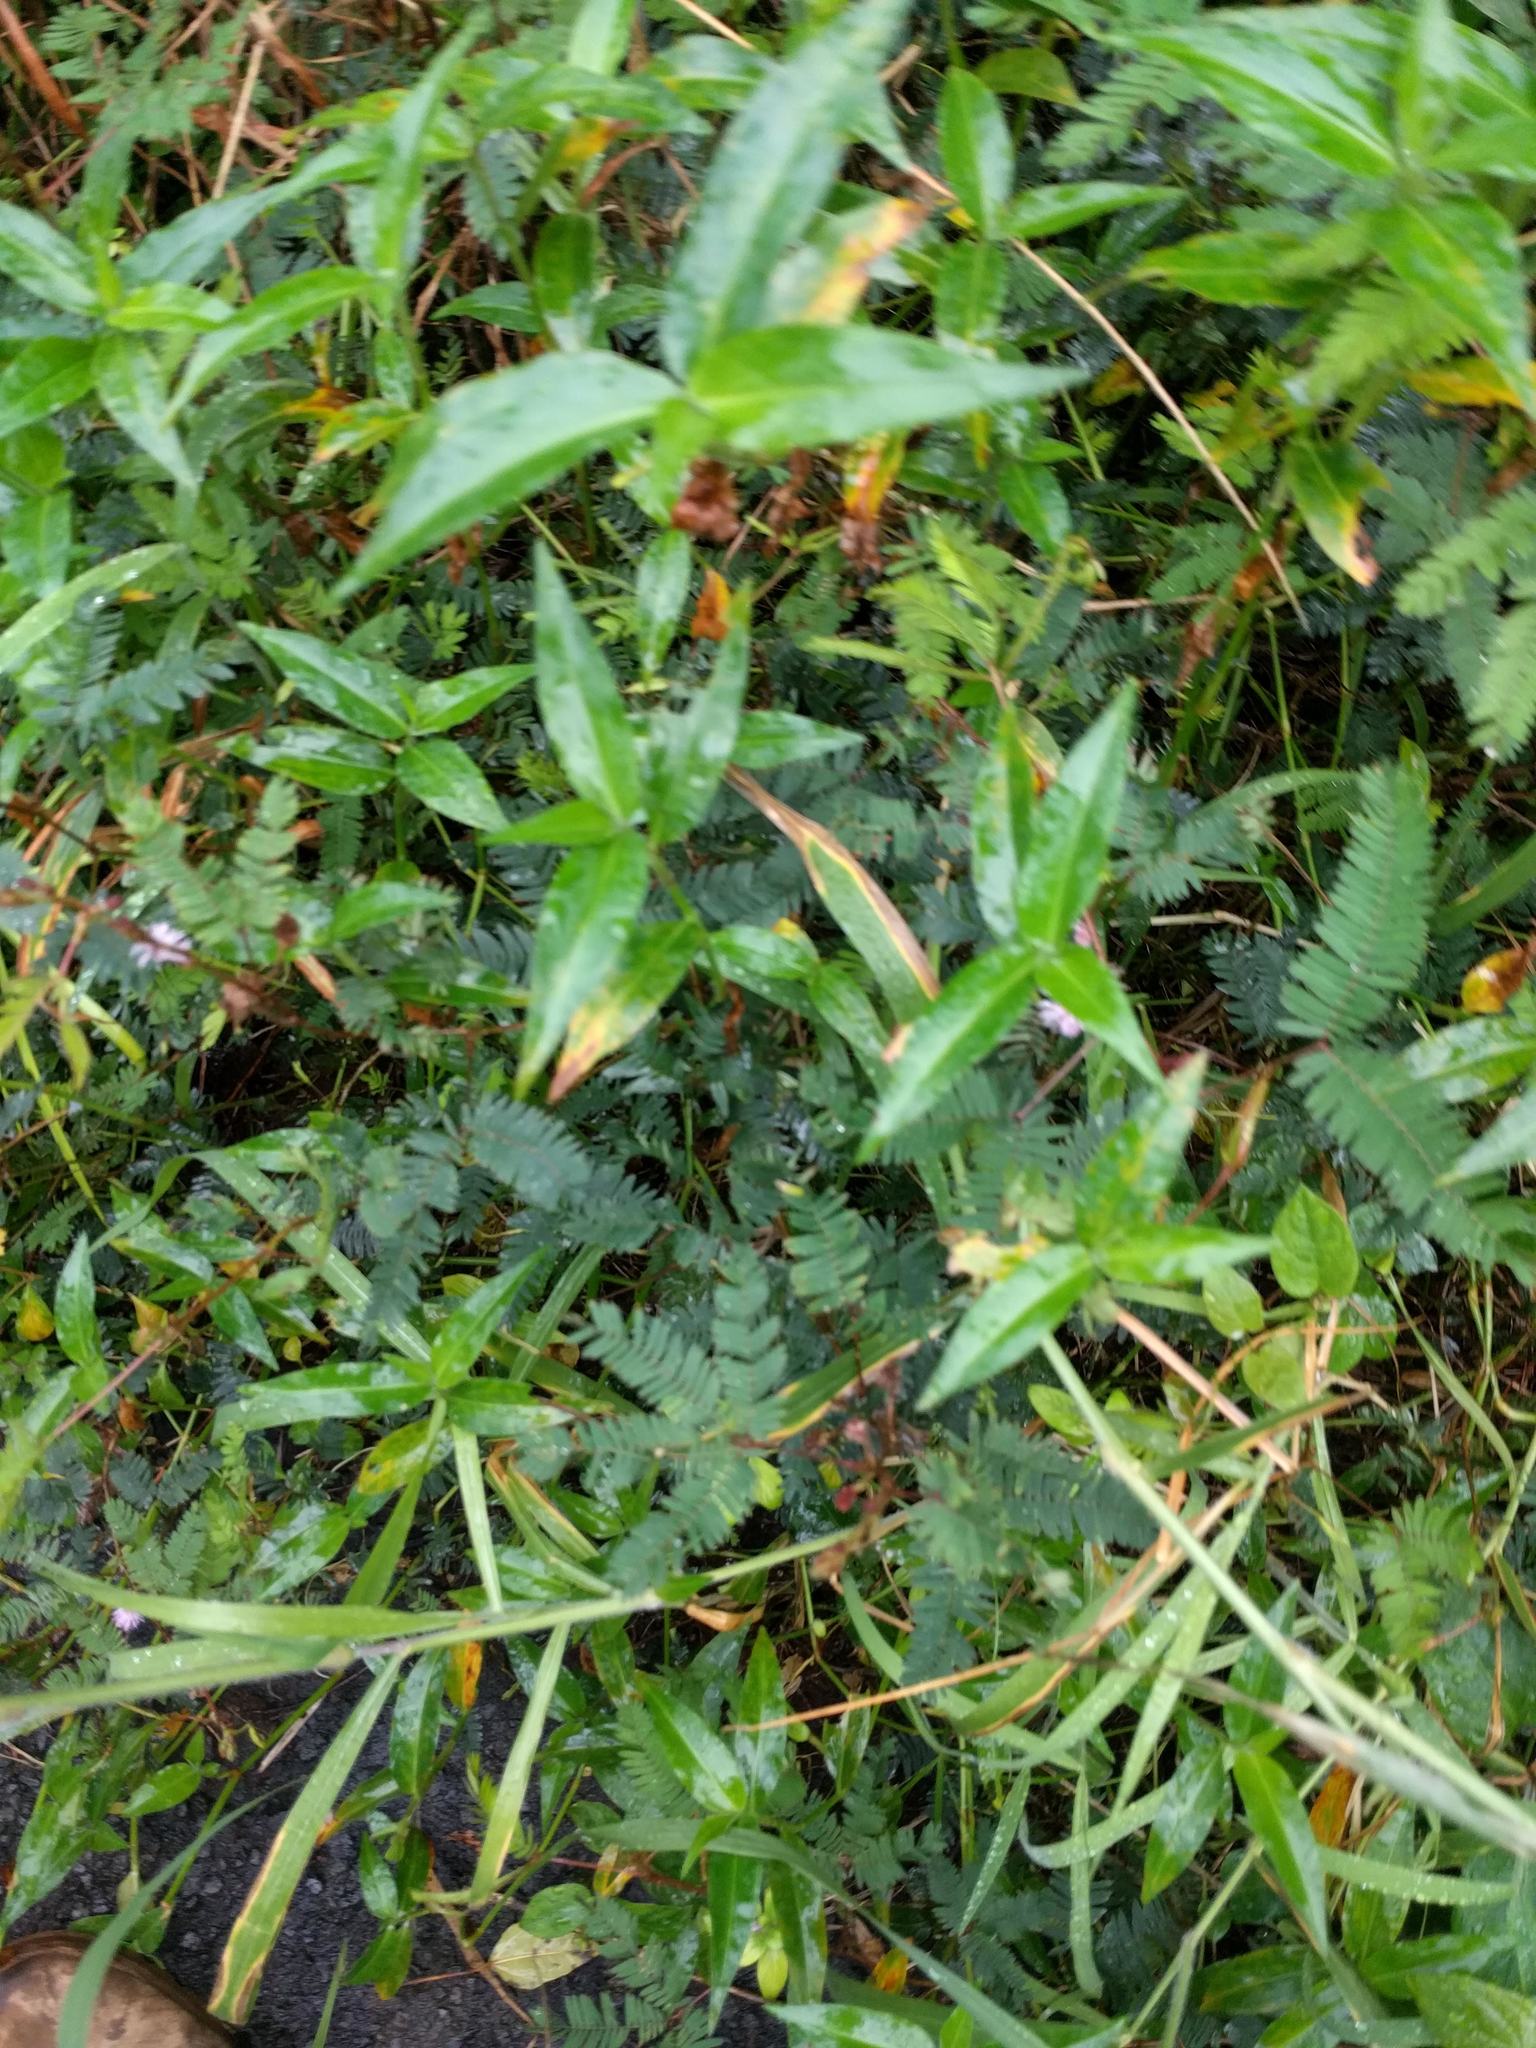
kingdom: Plantae
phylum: Tracheophyta
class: Liliopsida
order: Commelinales
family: Commelinaceae
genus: Commelina
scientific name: Commelina diffusa
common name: Climbing dayflower
